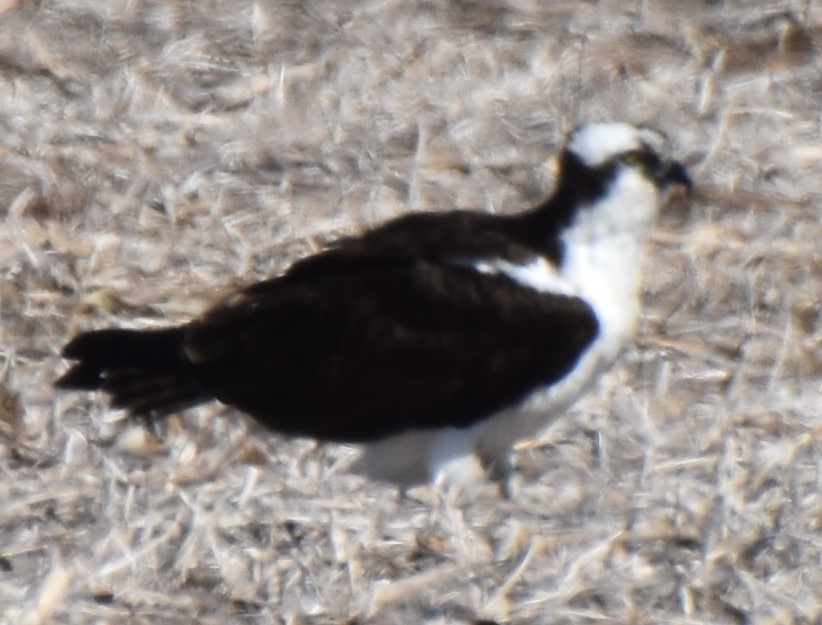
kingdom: Animalia
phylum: Chordata
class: Aves
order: Accipitriformes
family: Pandionidae
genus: Pandion
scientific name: Pandion haliaetus
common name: Osprey
